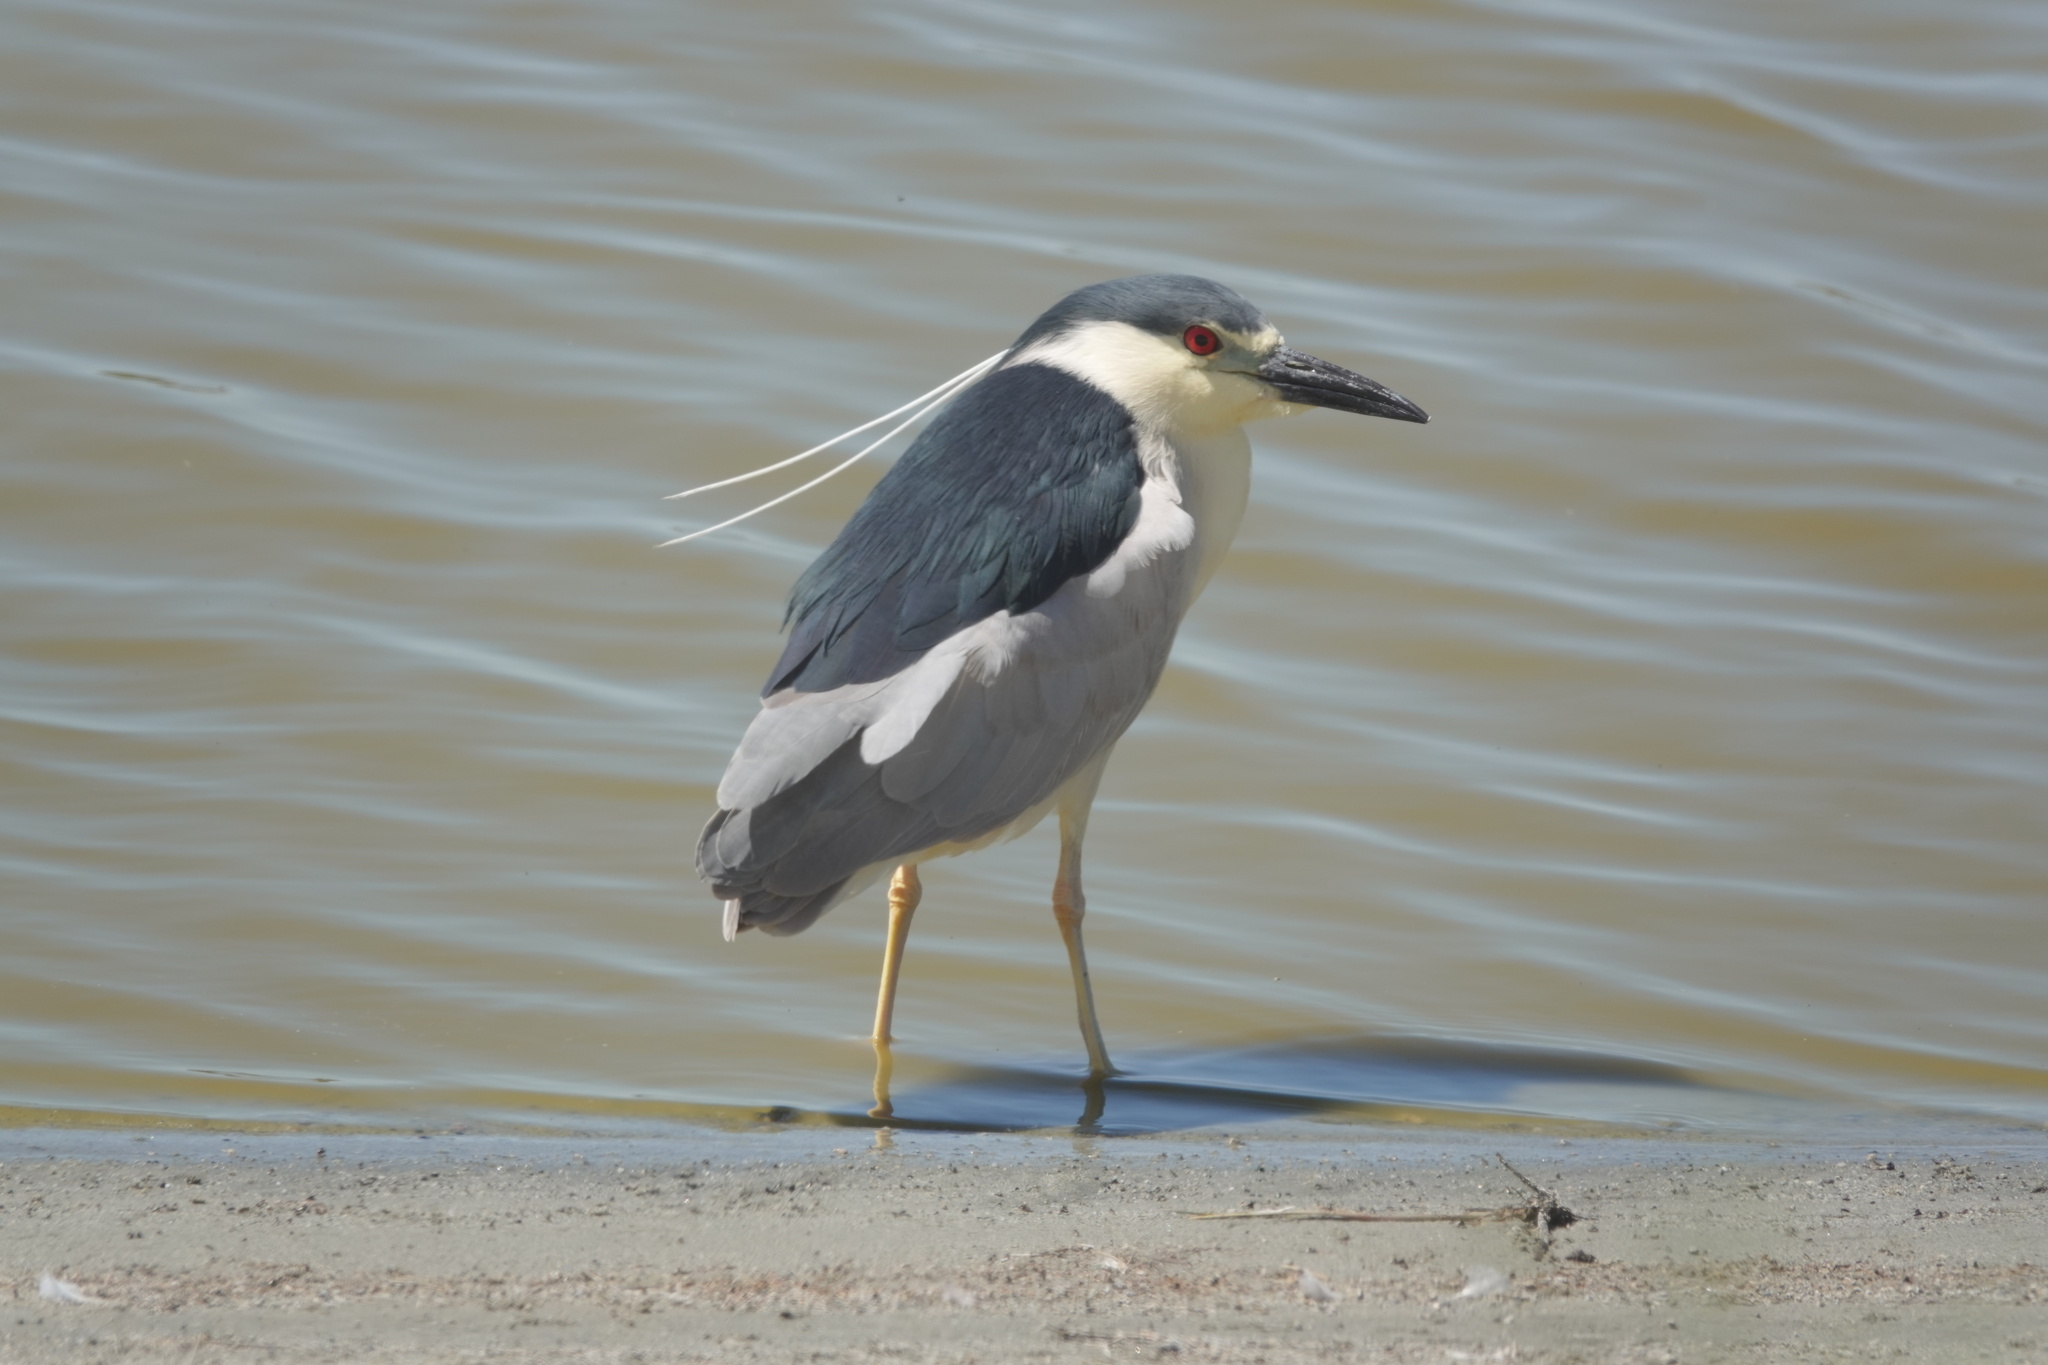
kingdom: Animalia
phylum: Chordata
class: Aves
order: Pelecaniformes
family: Ardeidae
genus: Nycticorax
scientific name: Nycticorax nycticorax
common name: Black-crowned night heron
